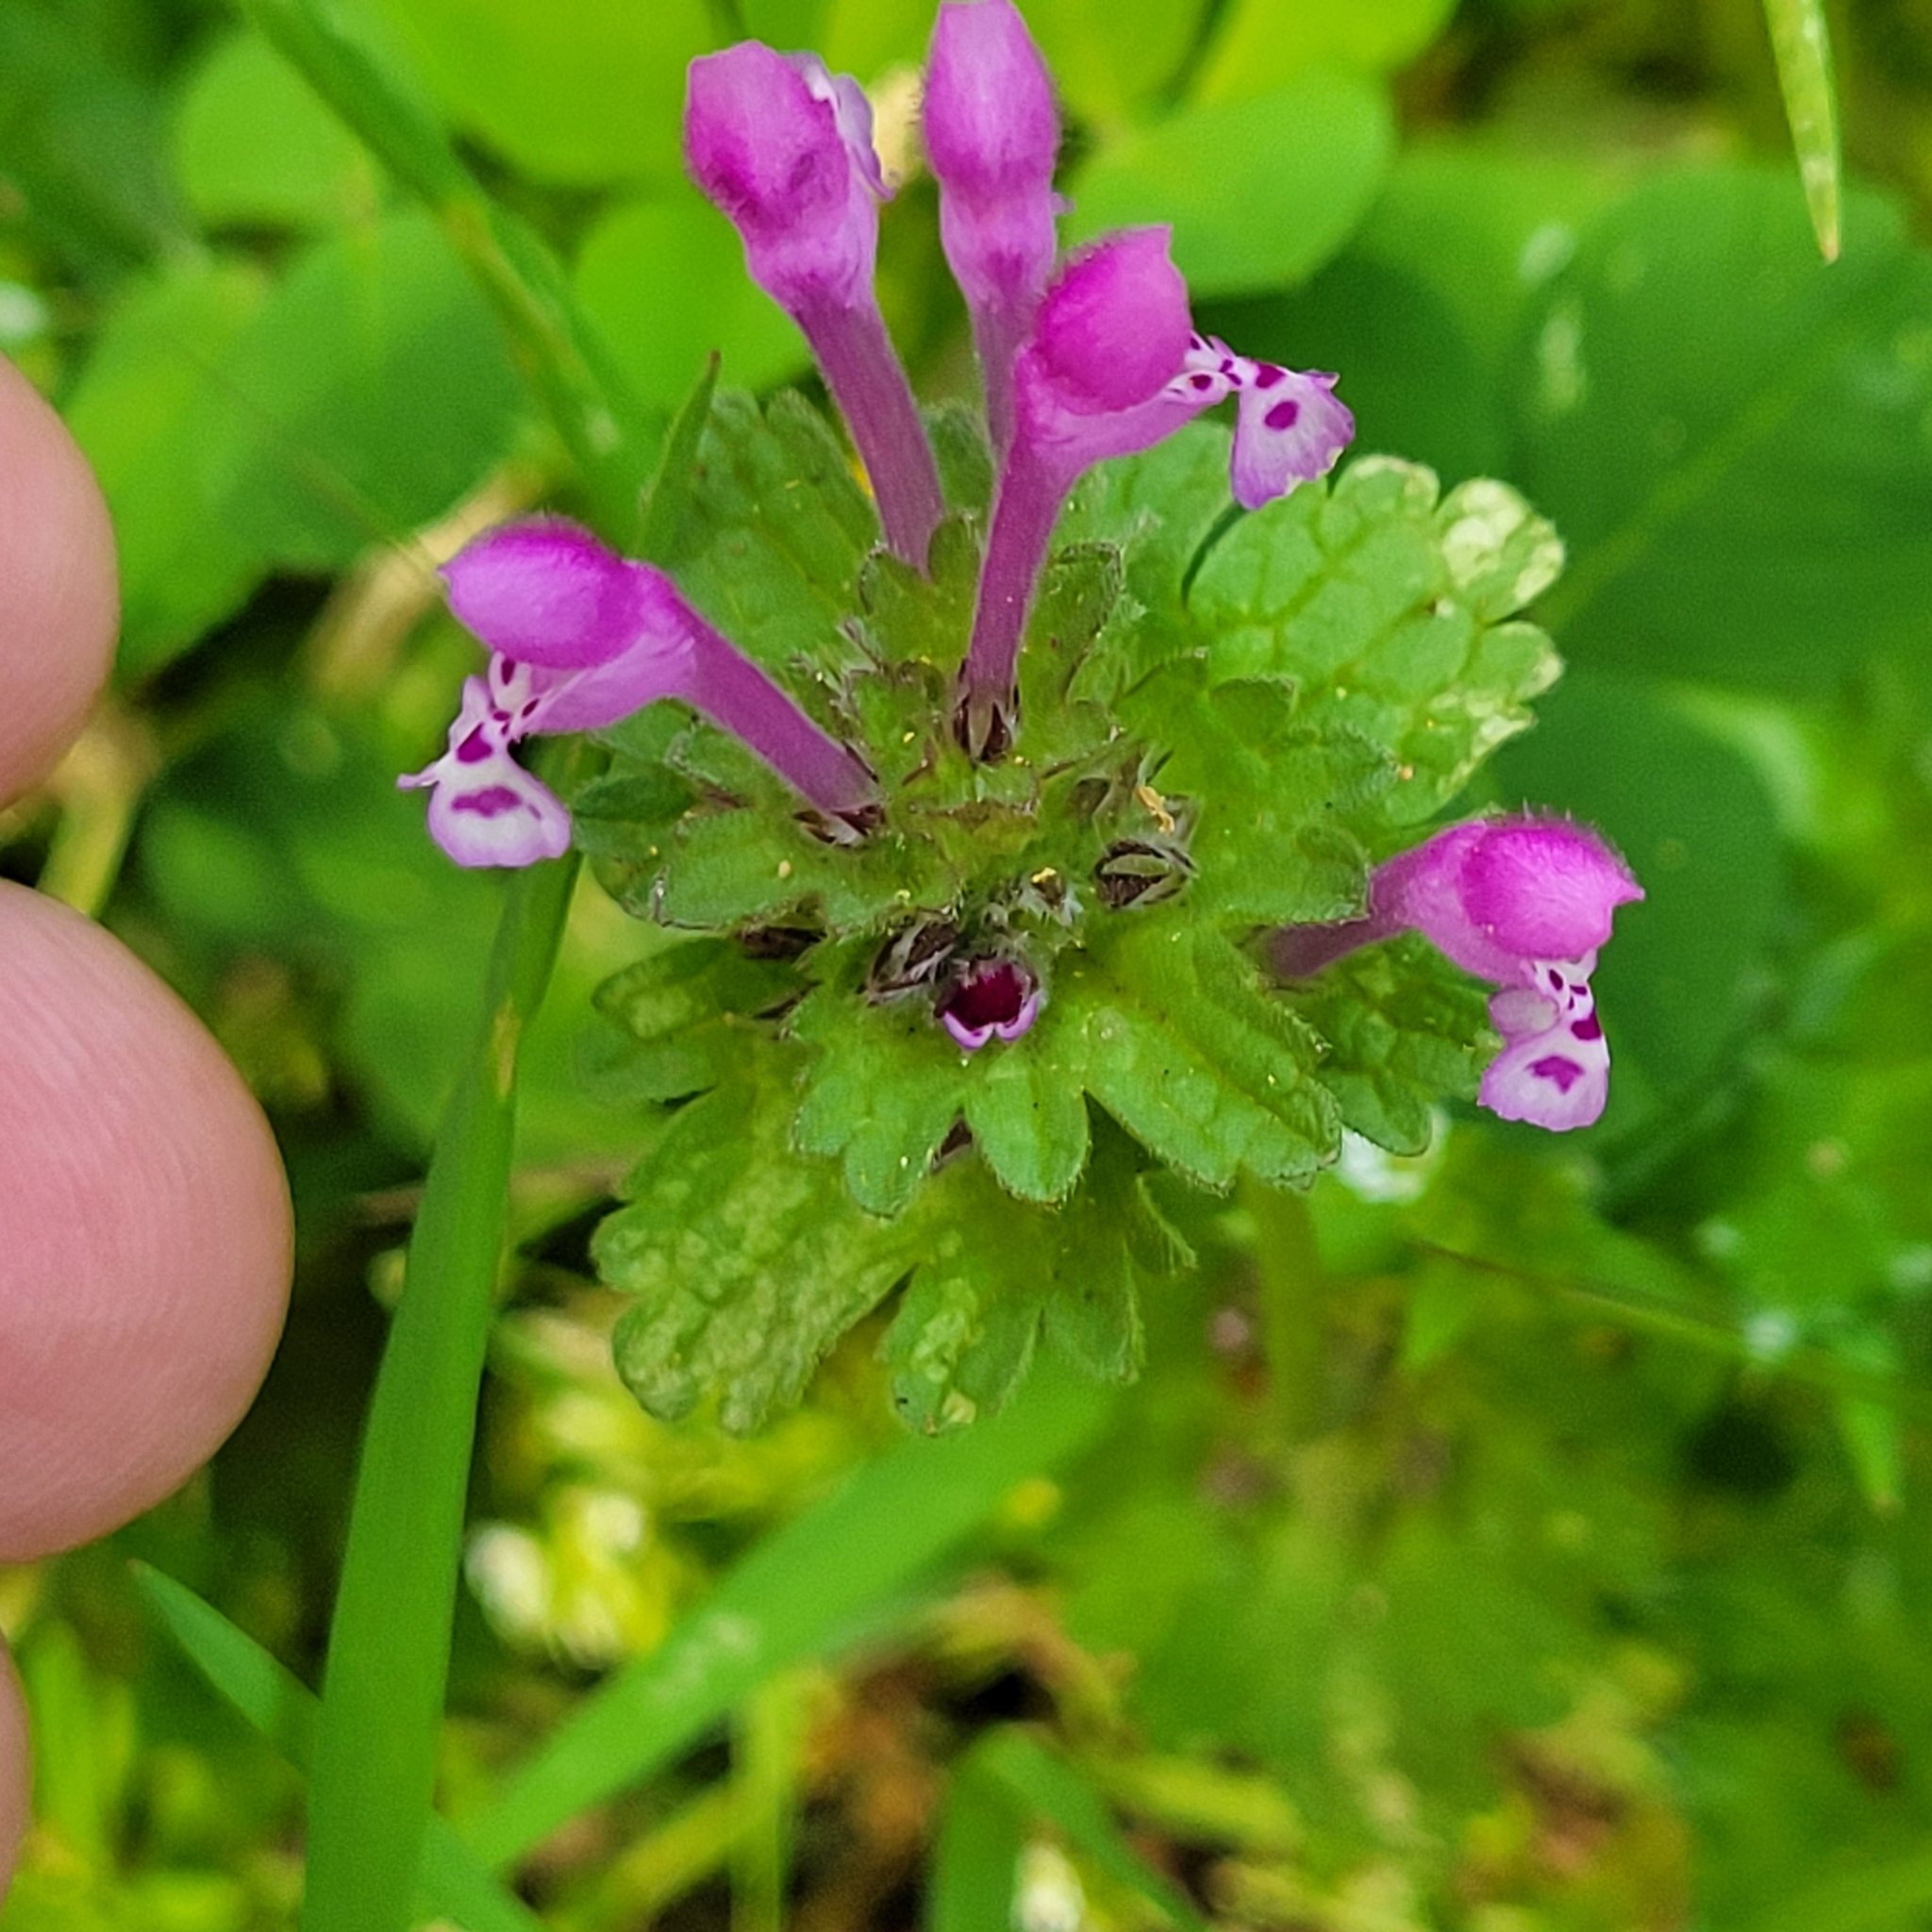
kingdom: Plantae
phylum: Tracheophyta
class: Magnoliopsida
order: Lamiales
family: Lamiaceae
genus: Lamium
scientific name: Lamium amplexicaule
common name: Henbit dead-nettle
